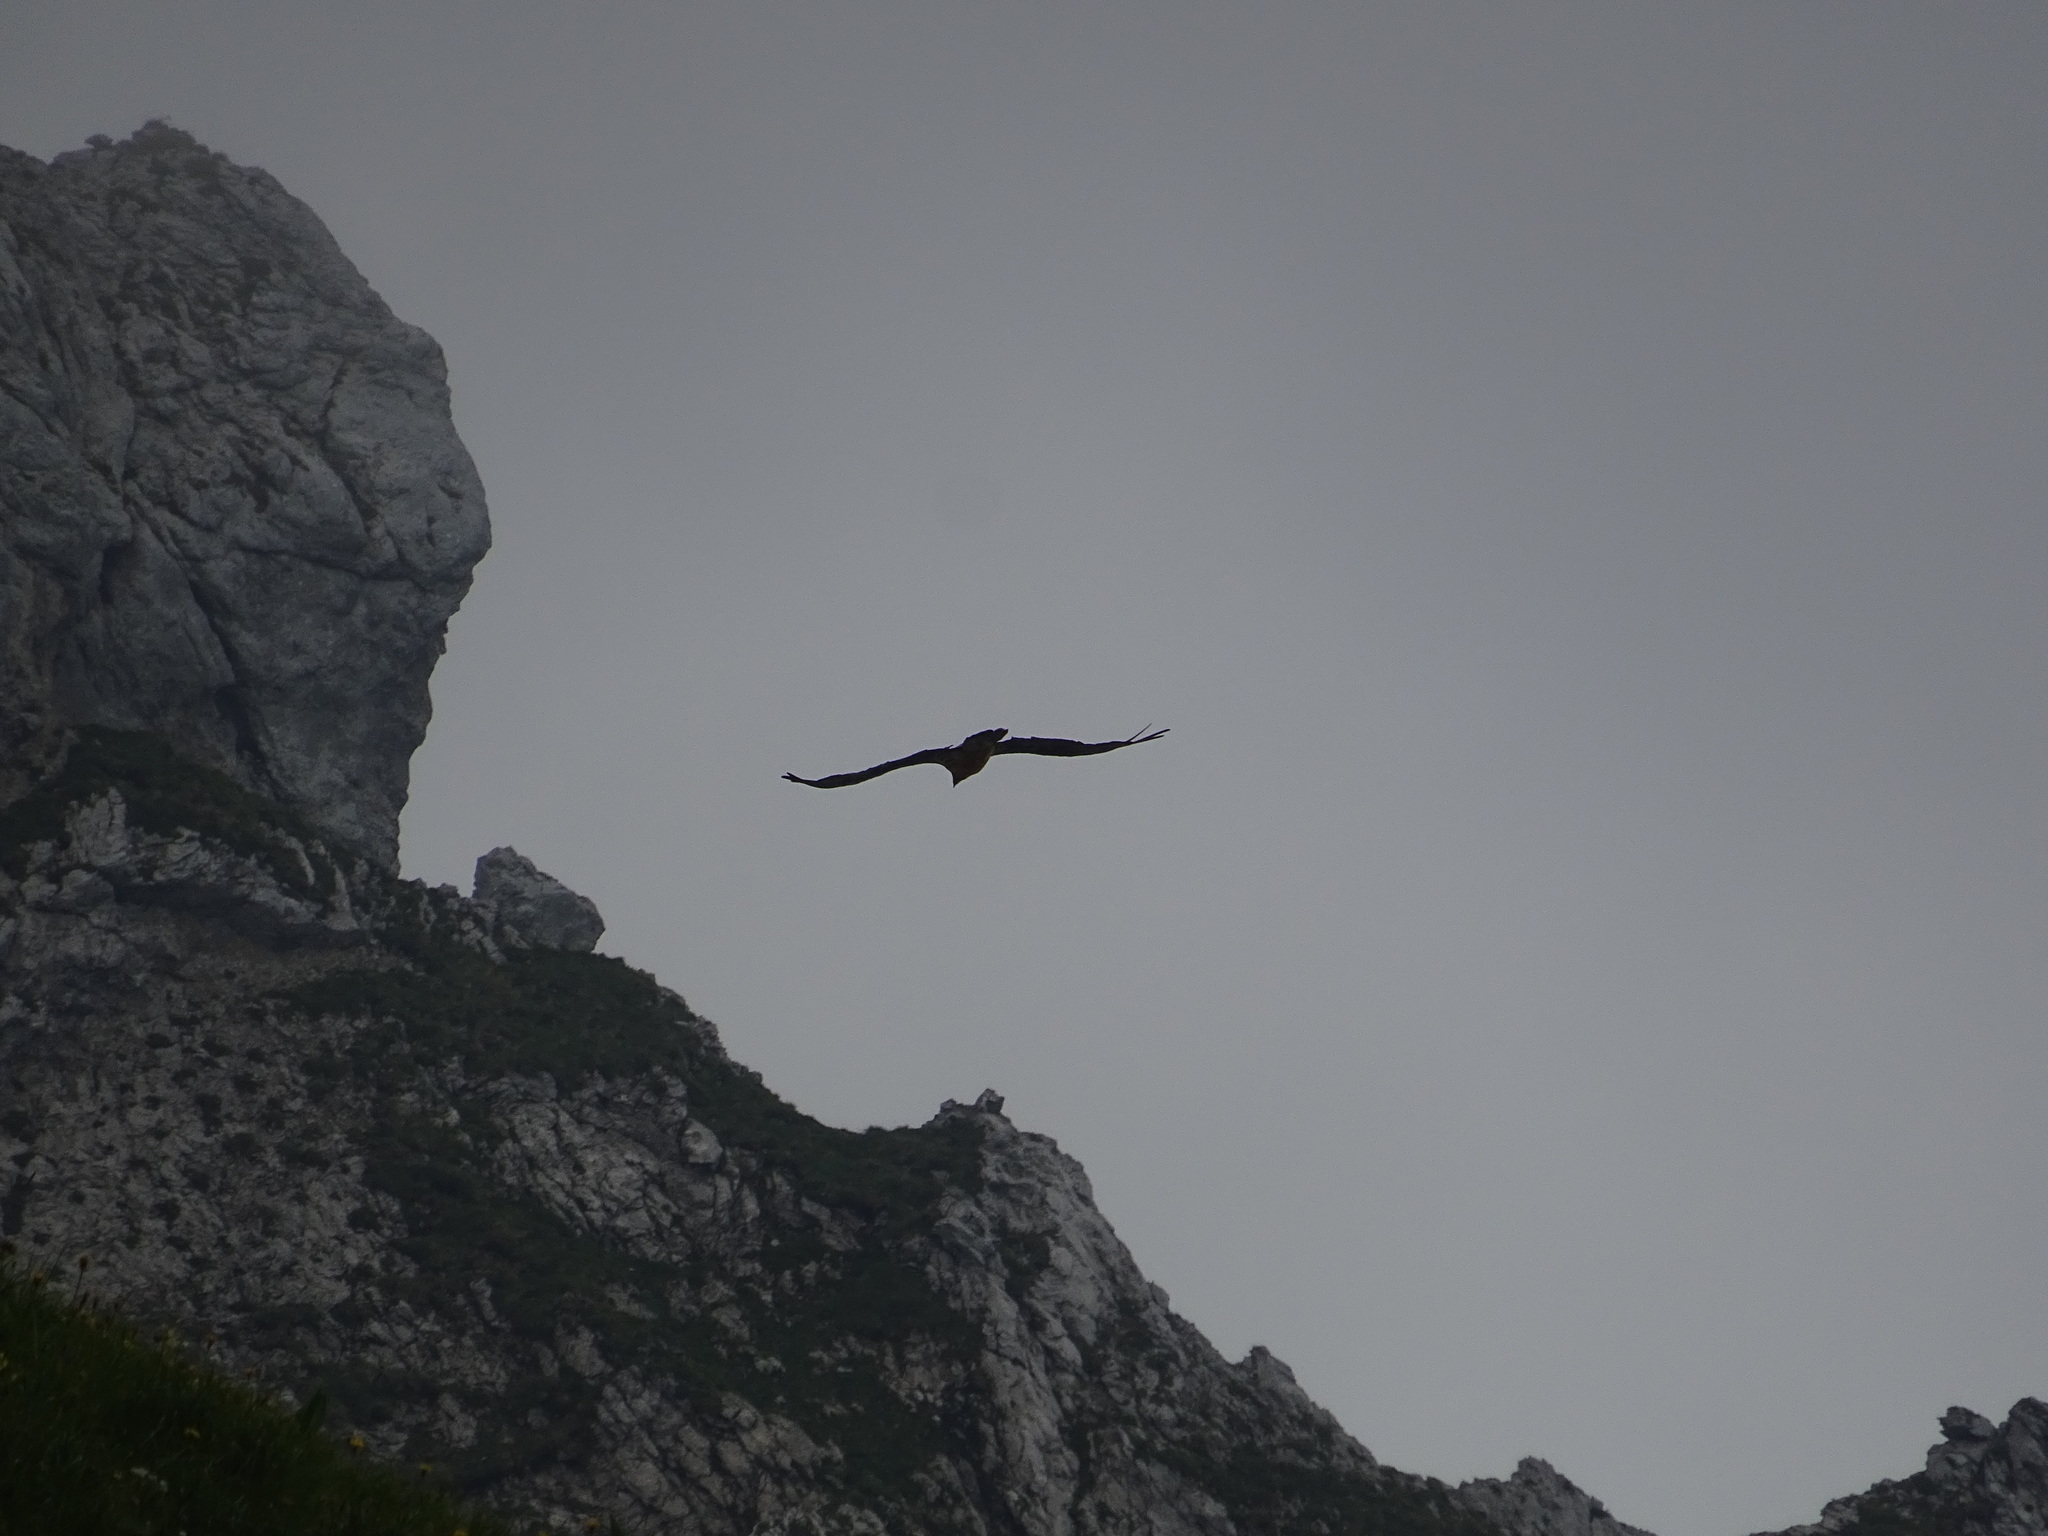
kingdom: Animalia
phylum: Chordata
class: Aves
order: Accipitriformes
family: Accipitridae
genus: Gypaetus
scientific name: Gypaetus barbatus
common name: Bearded vulture
